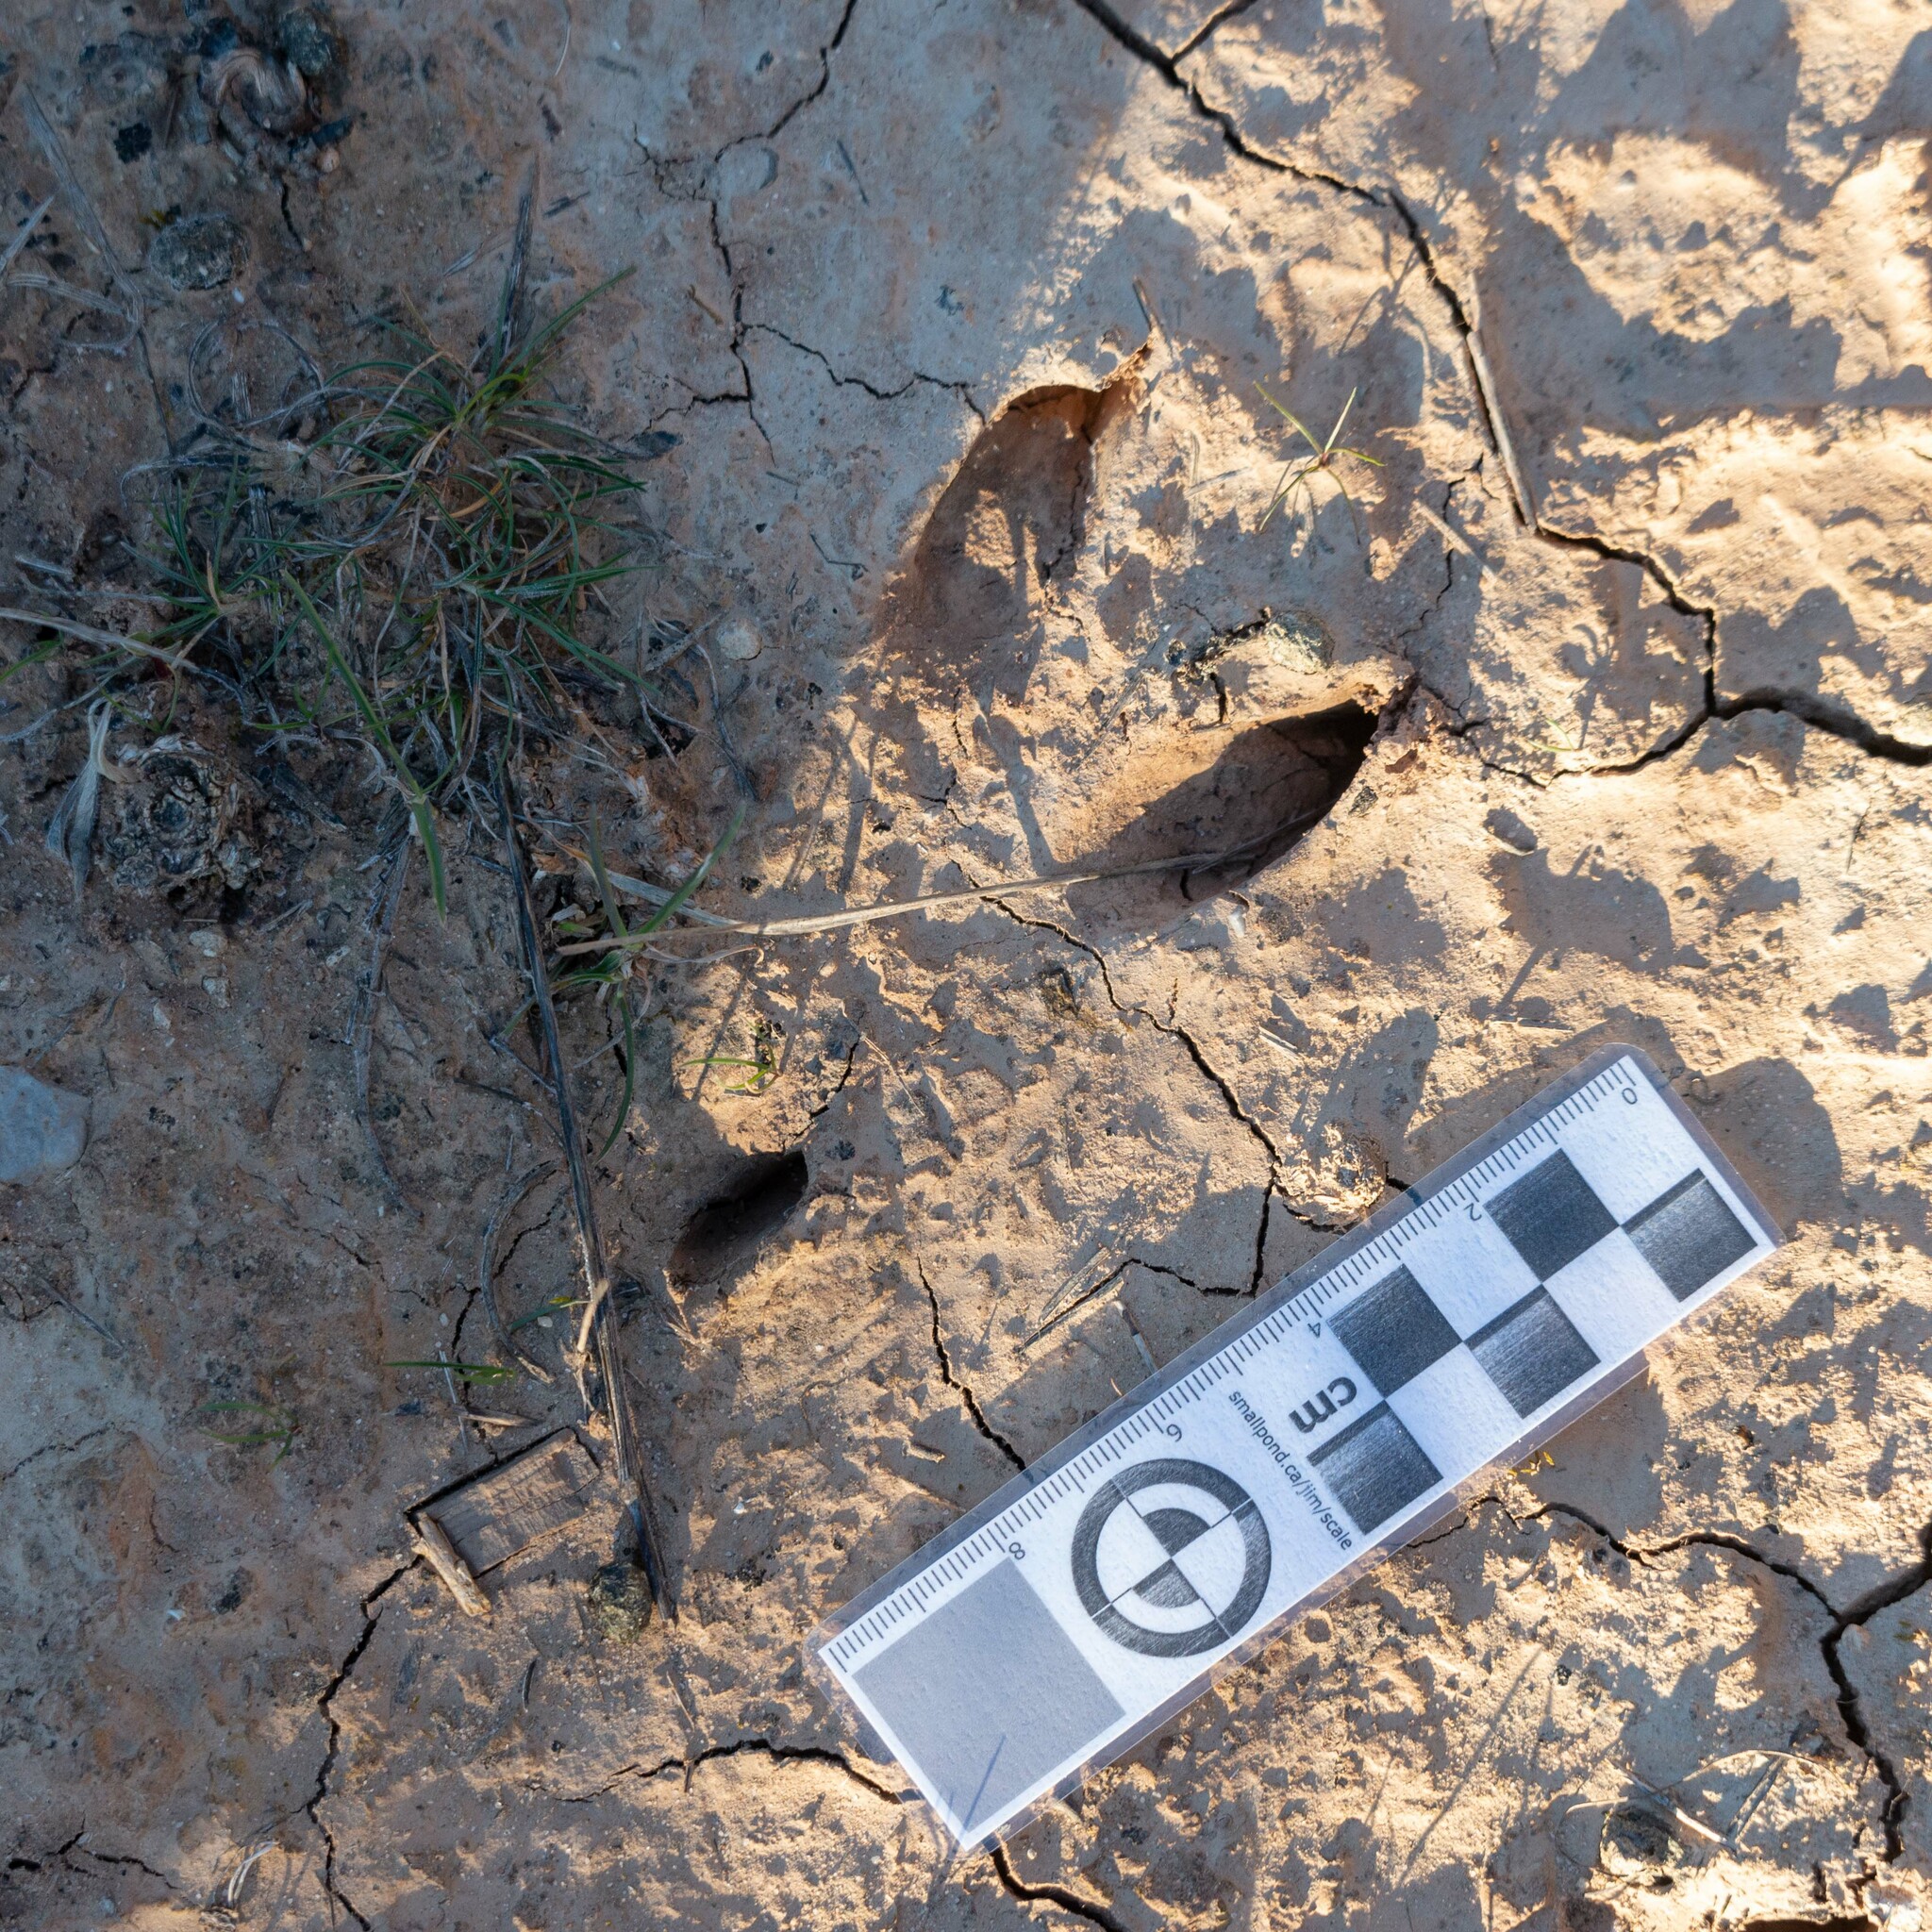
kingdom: Animalia
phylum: Chordata
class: Mammalia
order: Artiodactyla
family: Cervidae
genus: Capreolus
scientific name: Capreolus capreolus
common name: Western roe deer
